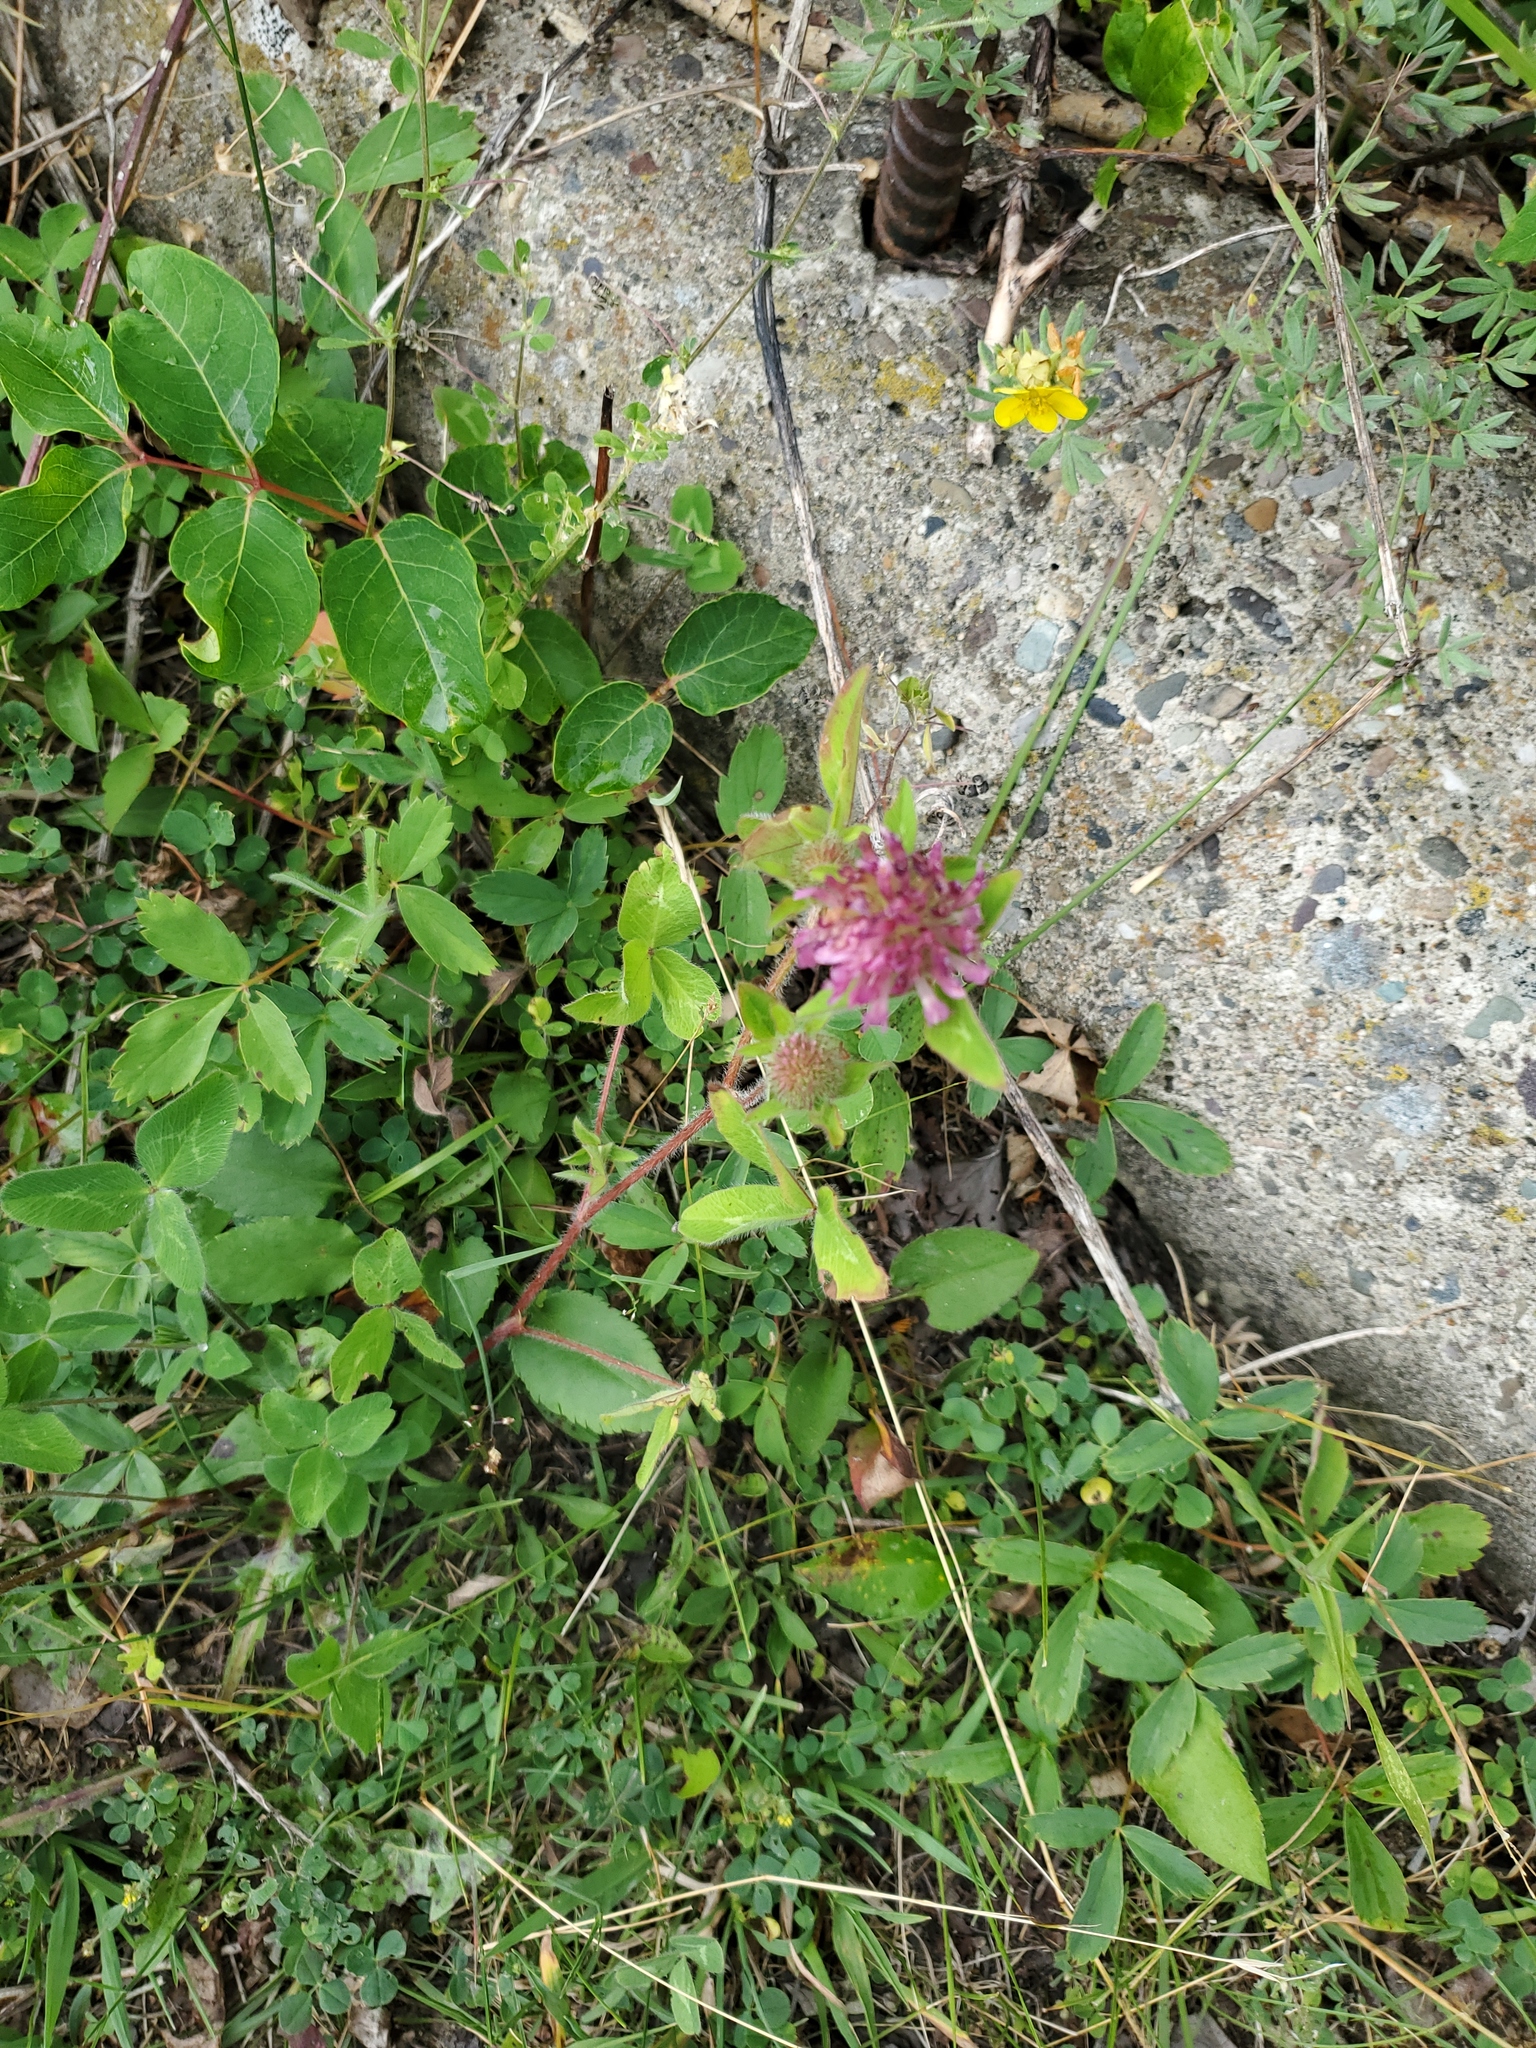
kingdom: Plantae
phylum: Tracheophyta
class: Magnoliopsida
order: Fabales
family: Fabaceae
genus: Trifolium
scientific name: Trifolium pratense
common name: Red clover
